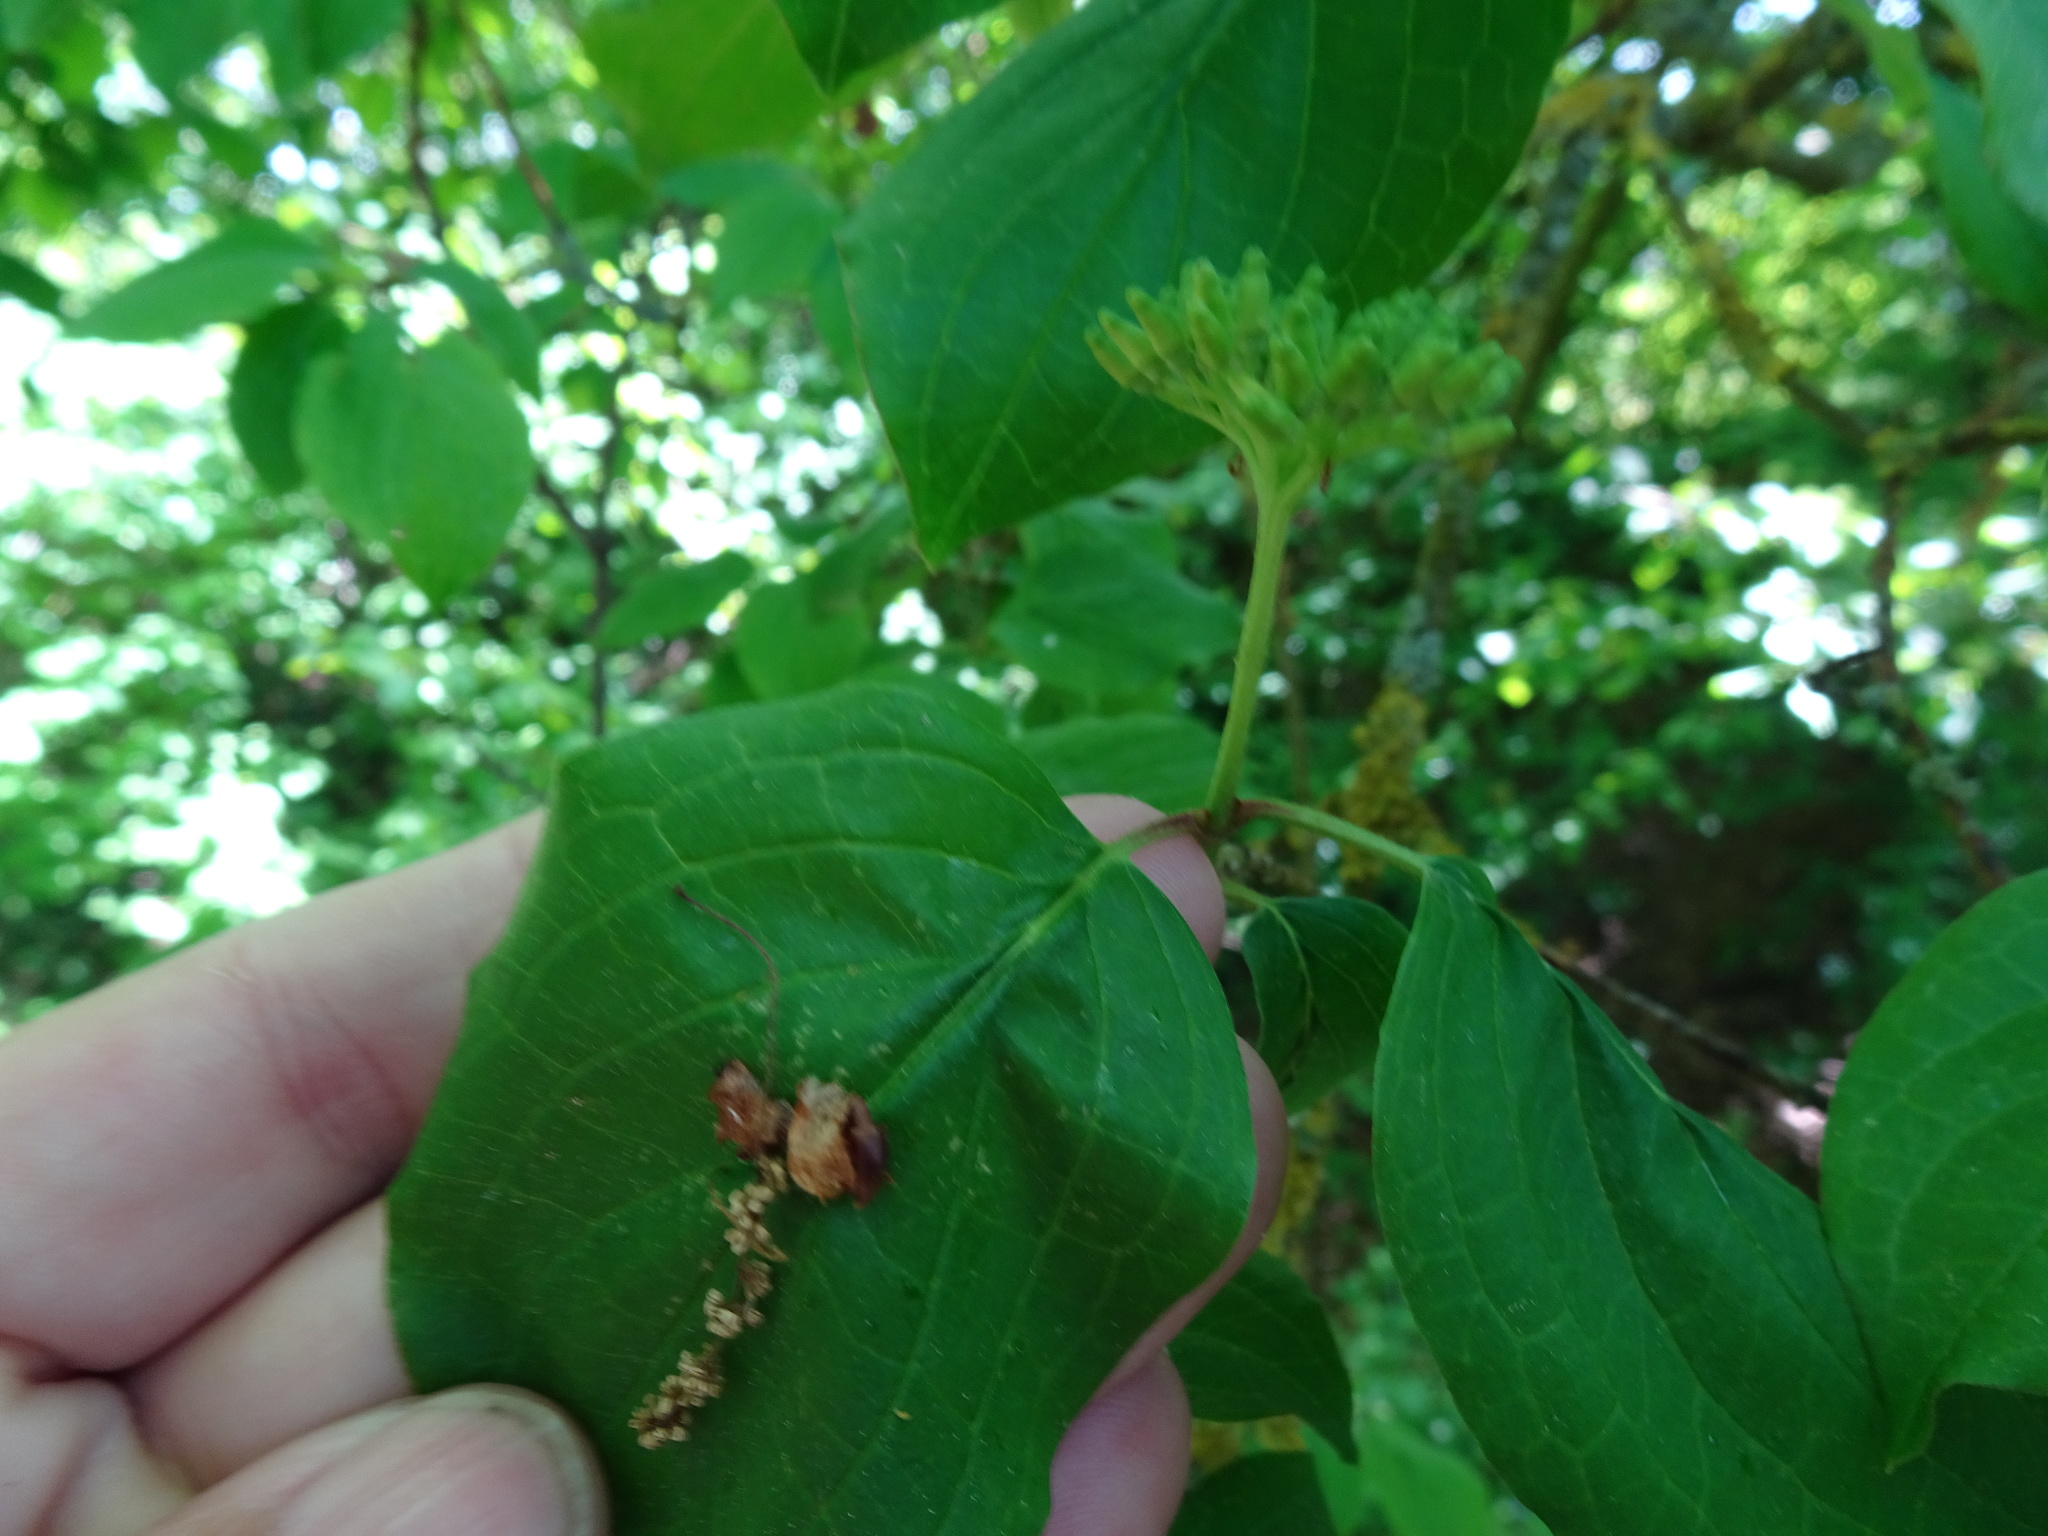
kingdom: Plantae
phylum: Tracheophyta
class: Magnoliopsida
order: Cornales
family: Cornaceae
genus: Cornus
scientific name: Cornus sanguinea
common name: Dogwood
